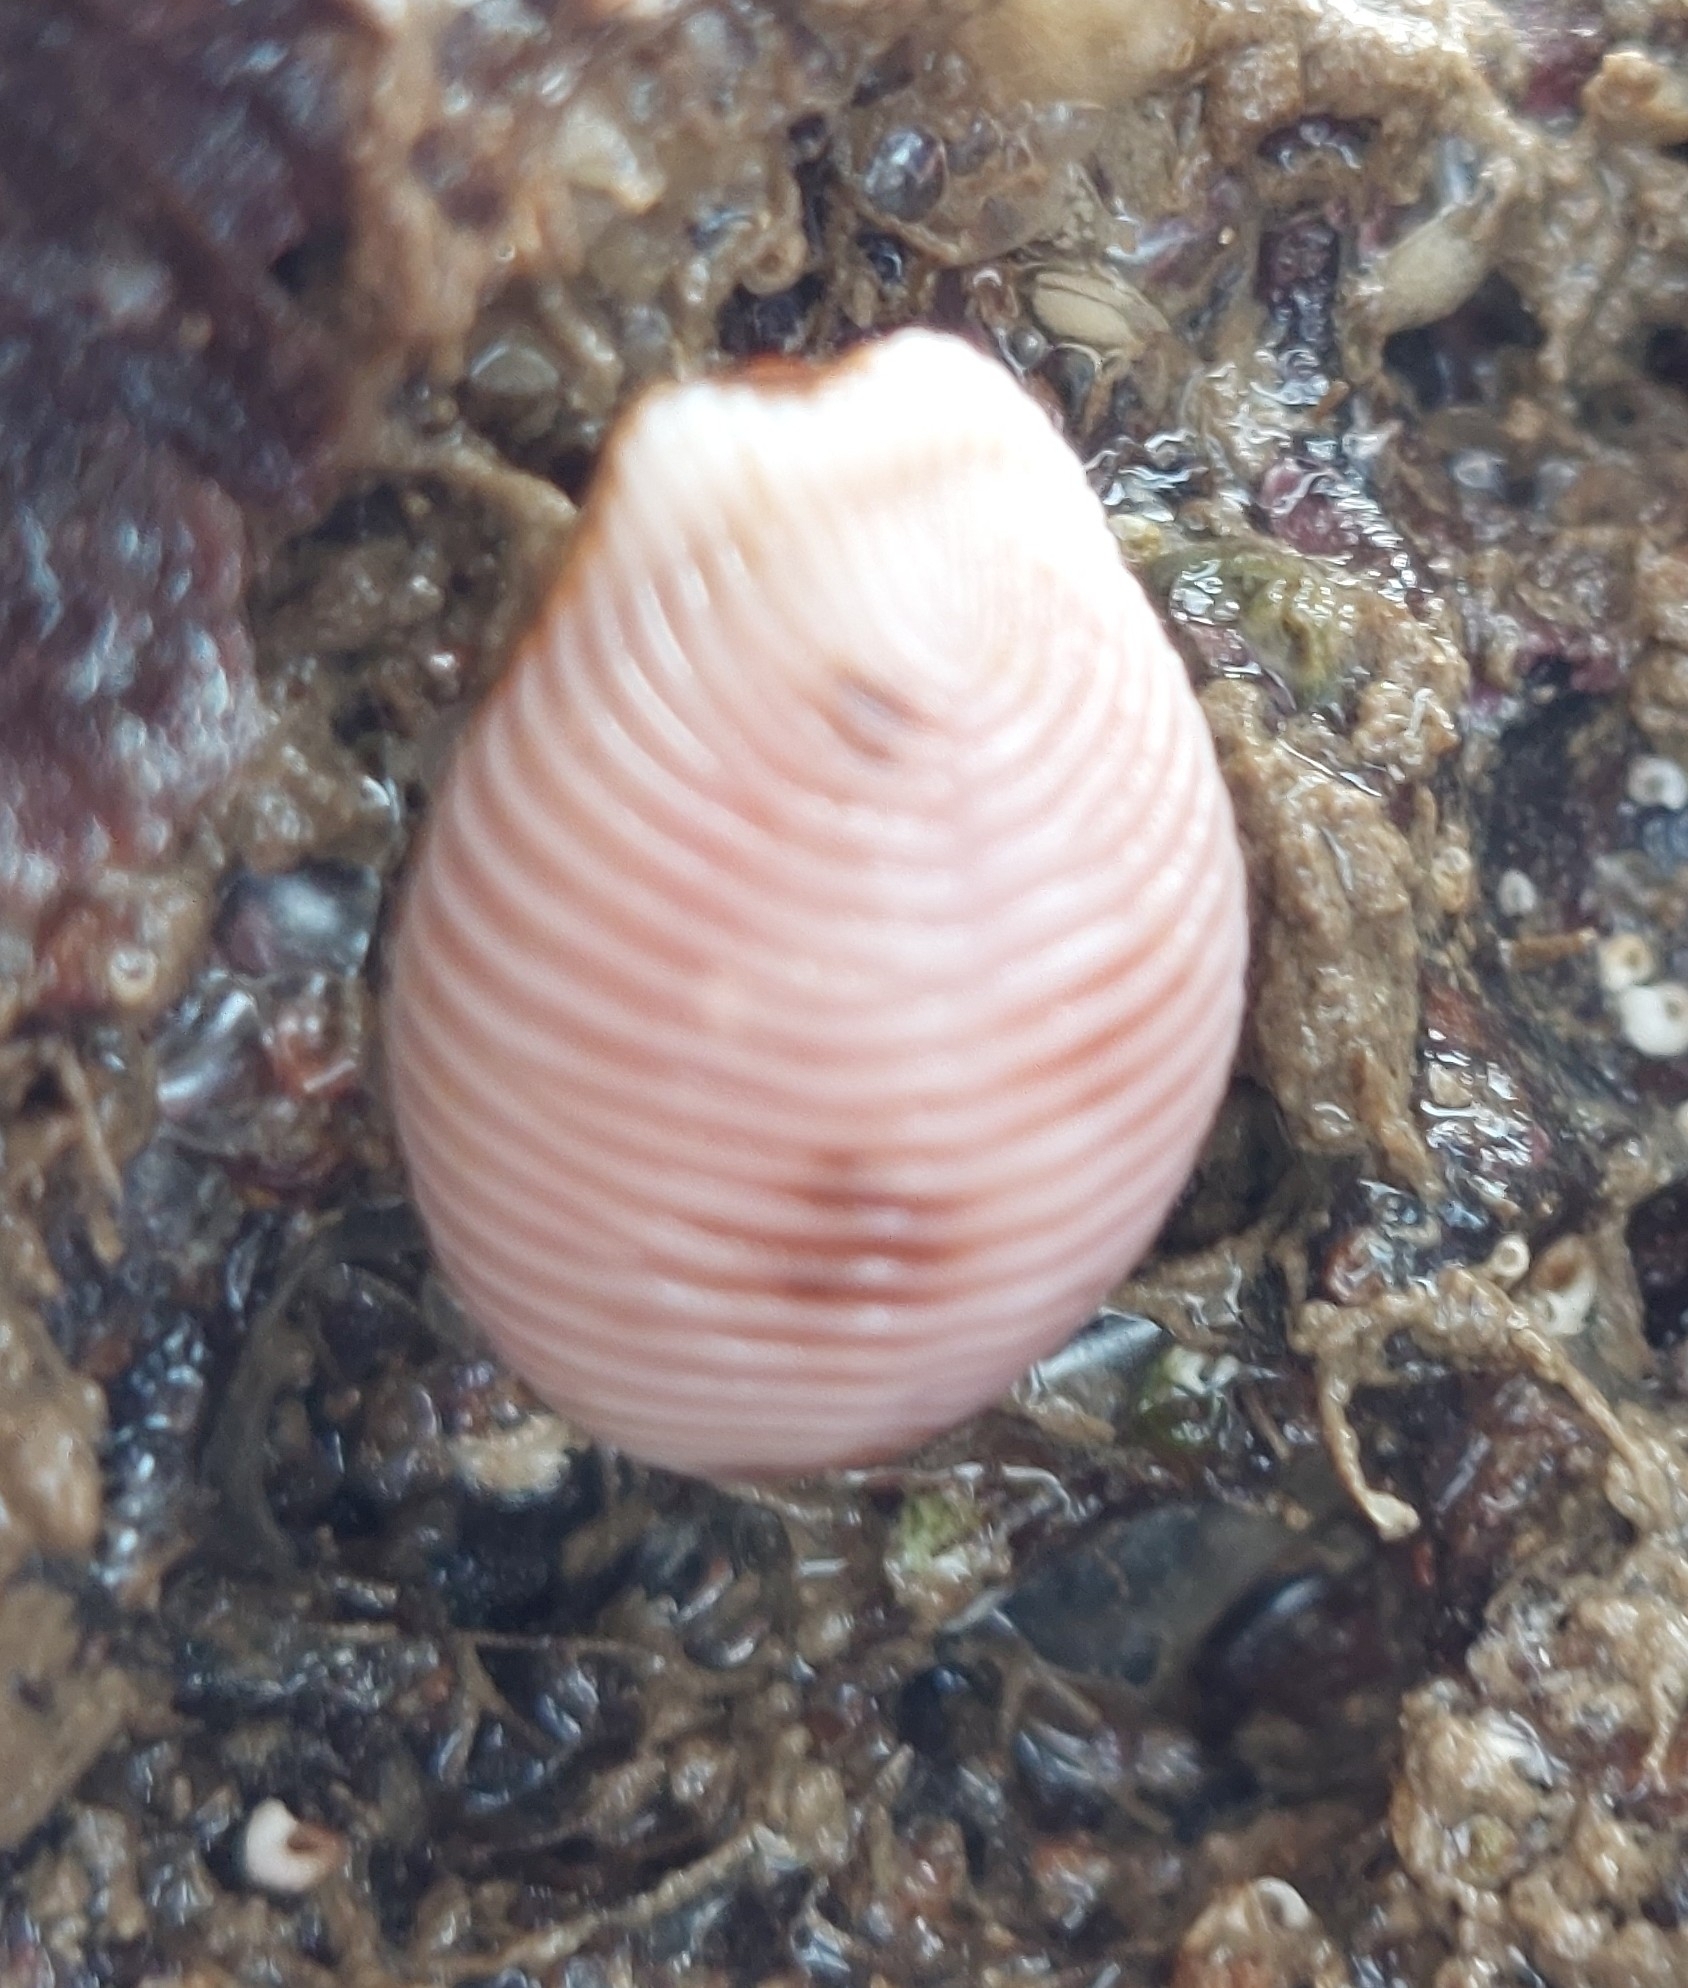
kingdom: Animalia
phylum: Mollusca
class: Gastropoda
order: Littorinimorpha
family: Triviidae
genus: Trivia
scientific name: Trivia monacha
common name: Spotted cowrie
